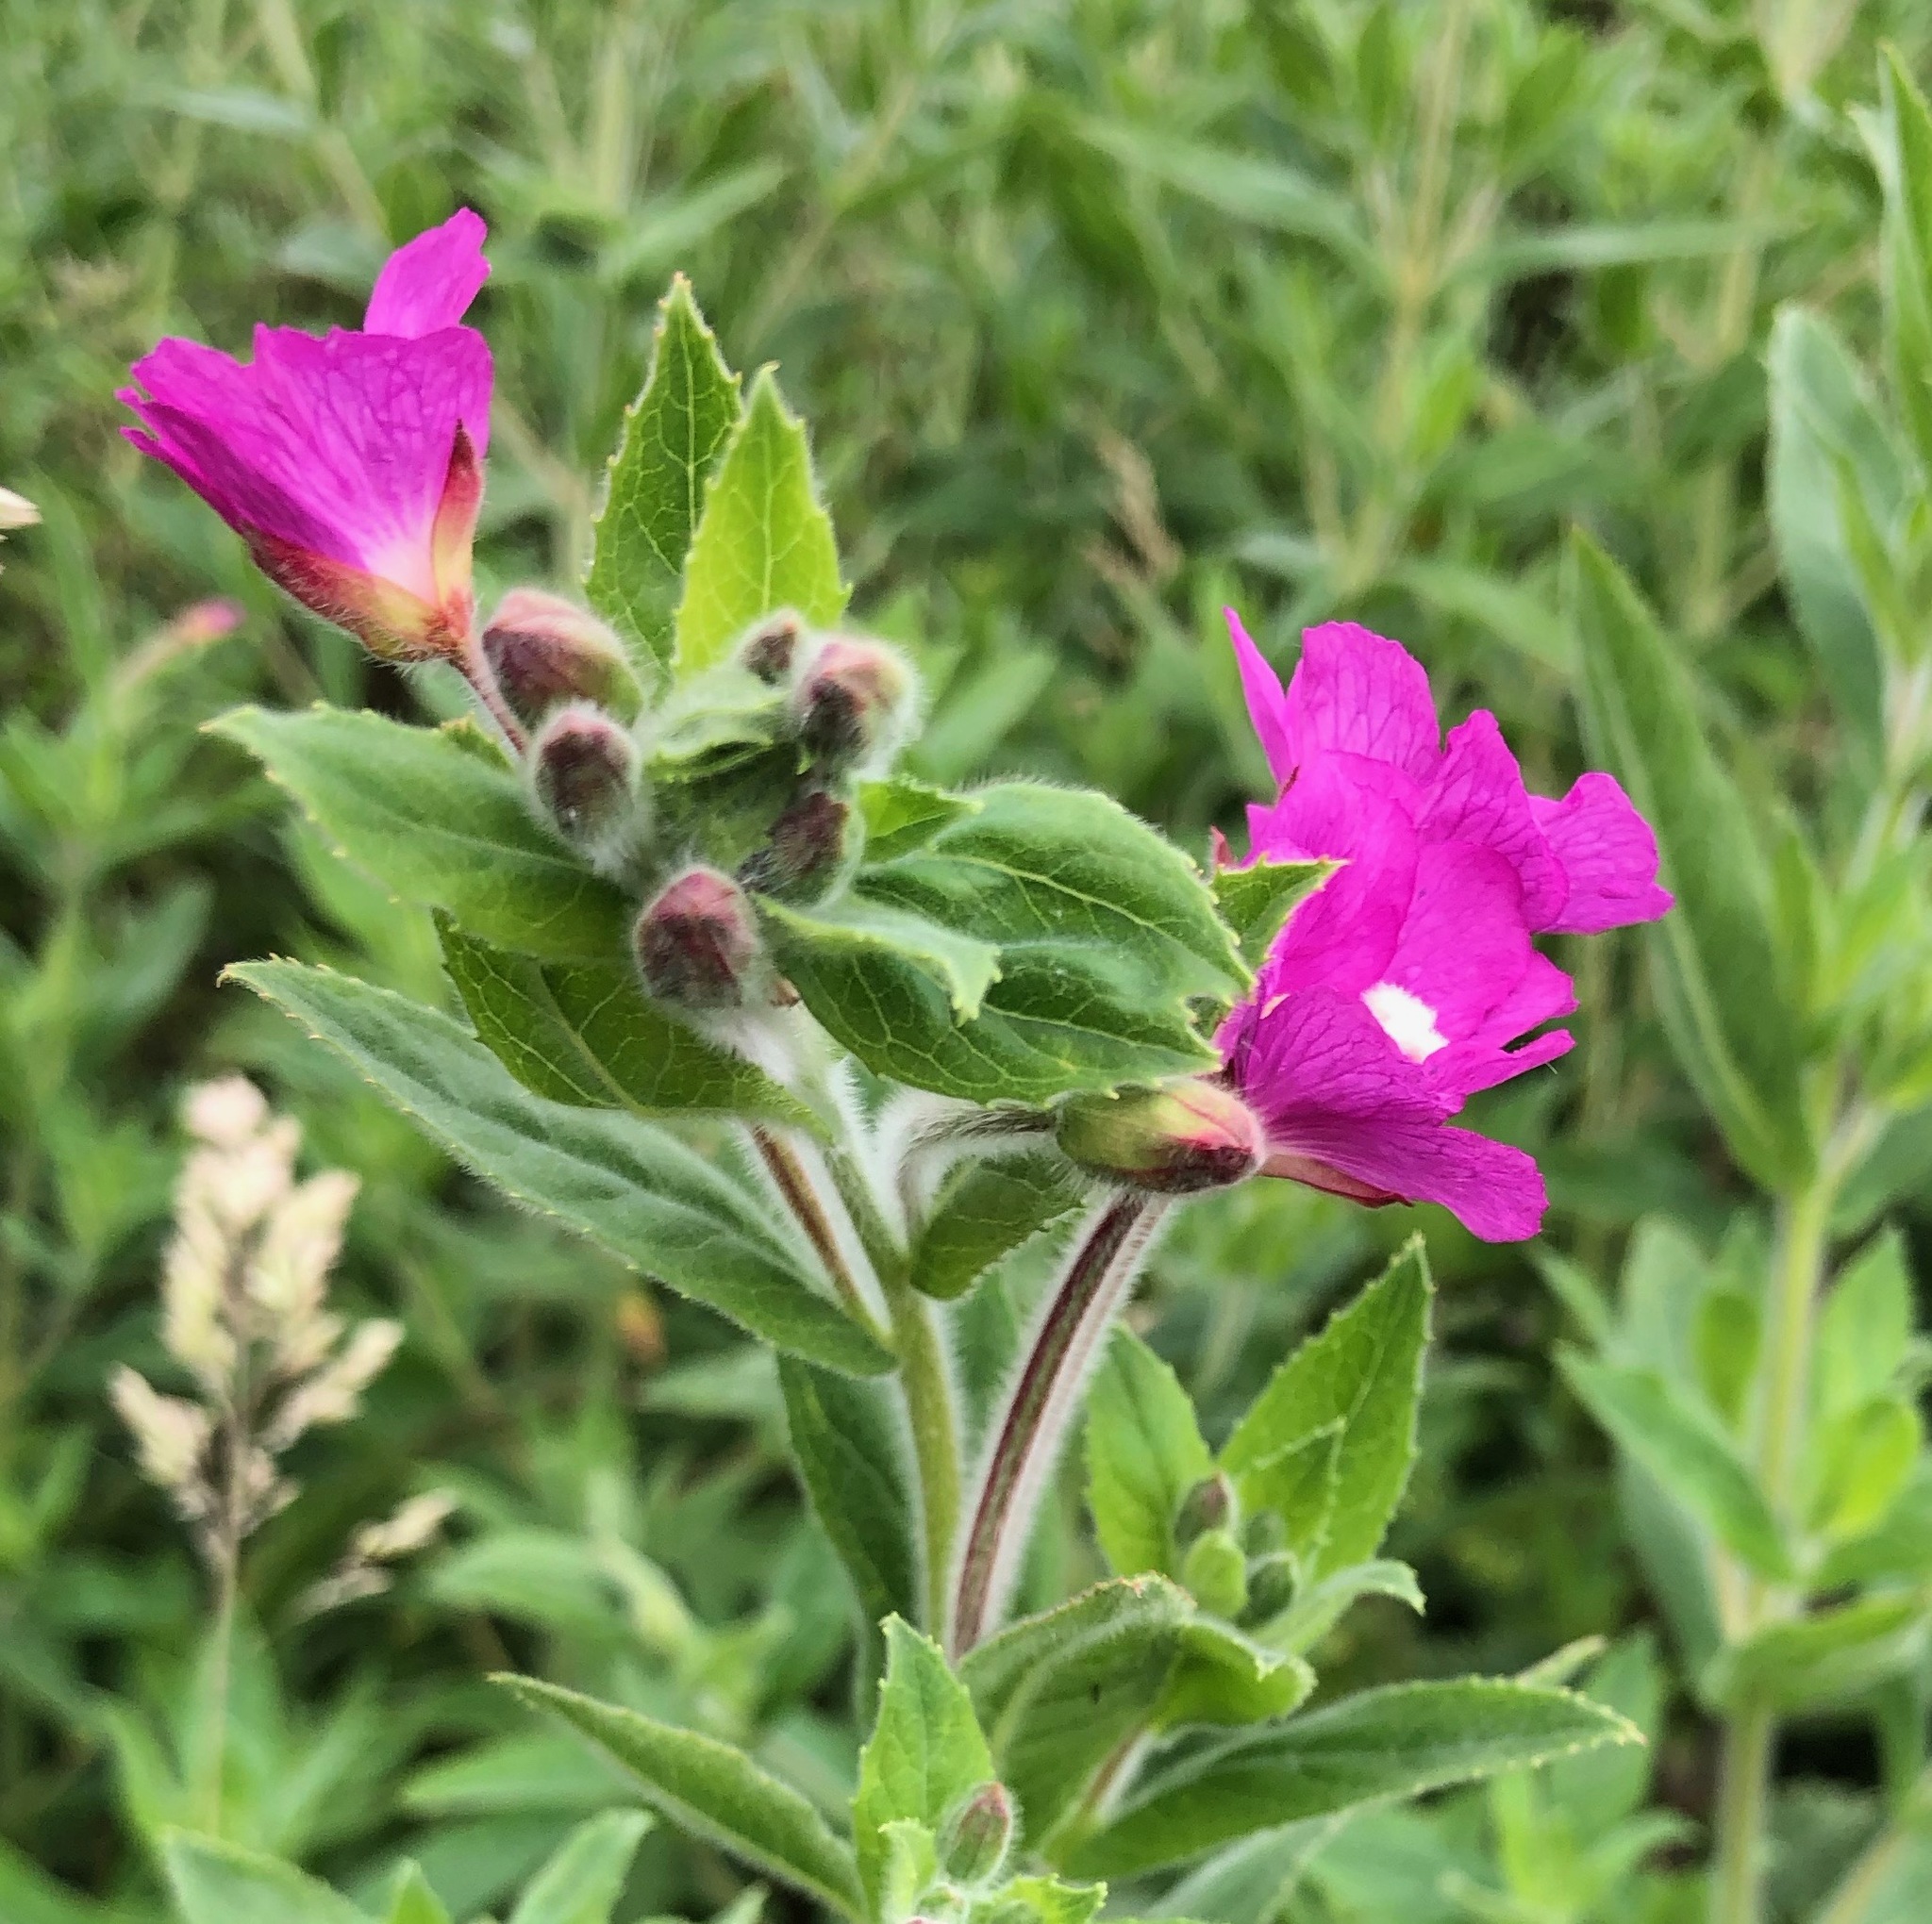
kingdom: Plantae
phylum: Tracheophyta
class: Magnoliopsida
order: Myrtales
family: Onagraceae
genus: Epilobium
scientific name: Epilobium hirsutum
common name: Great willowherb
